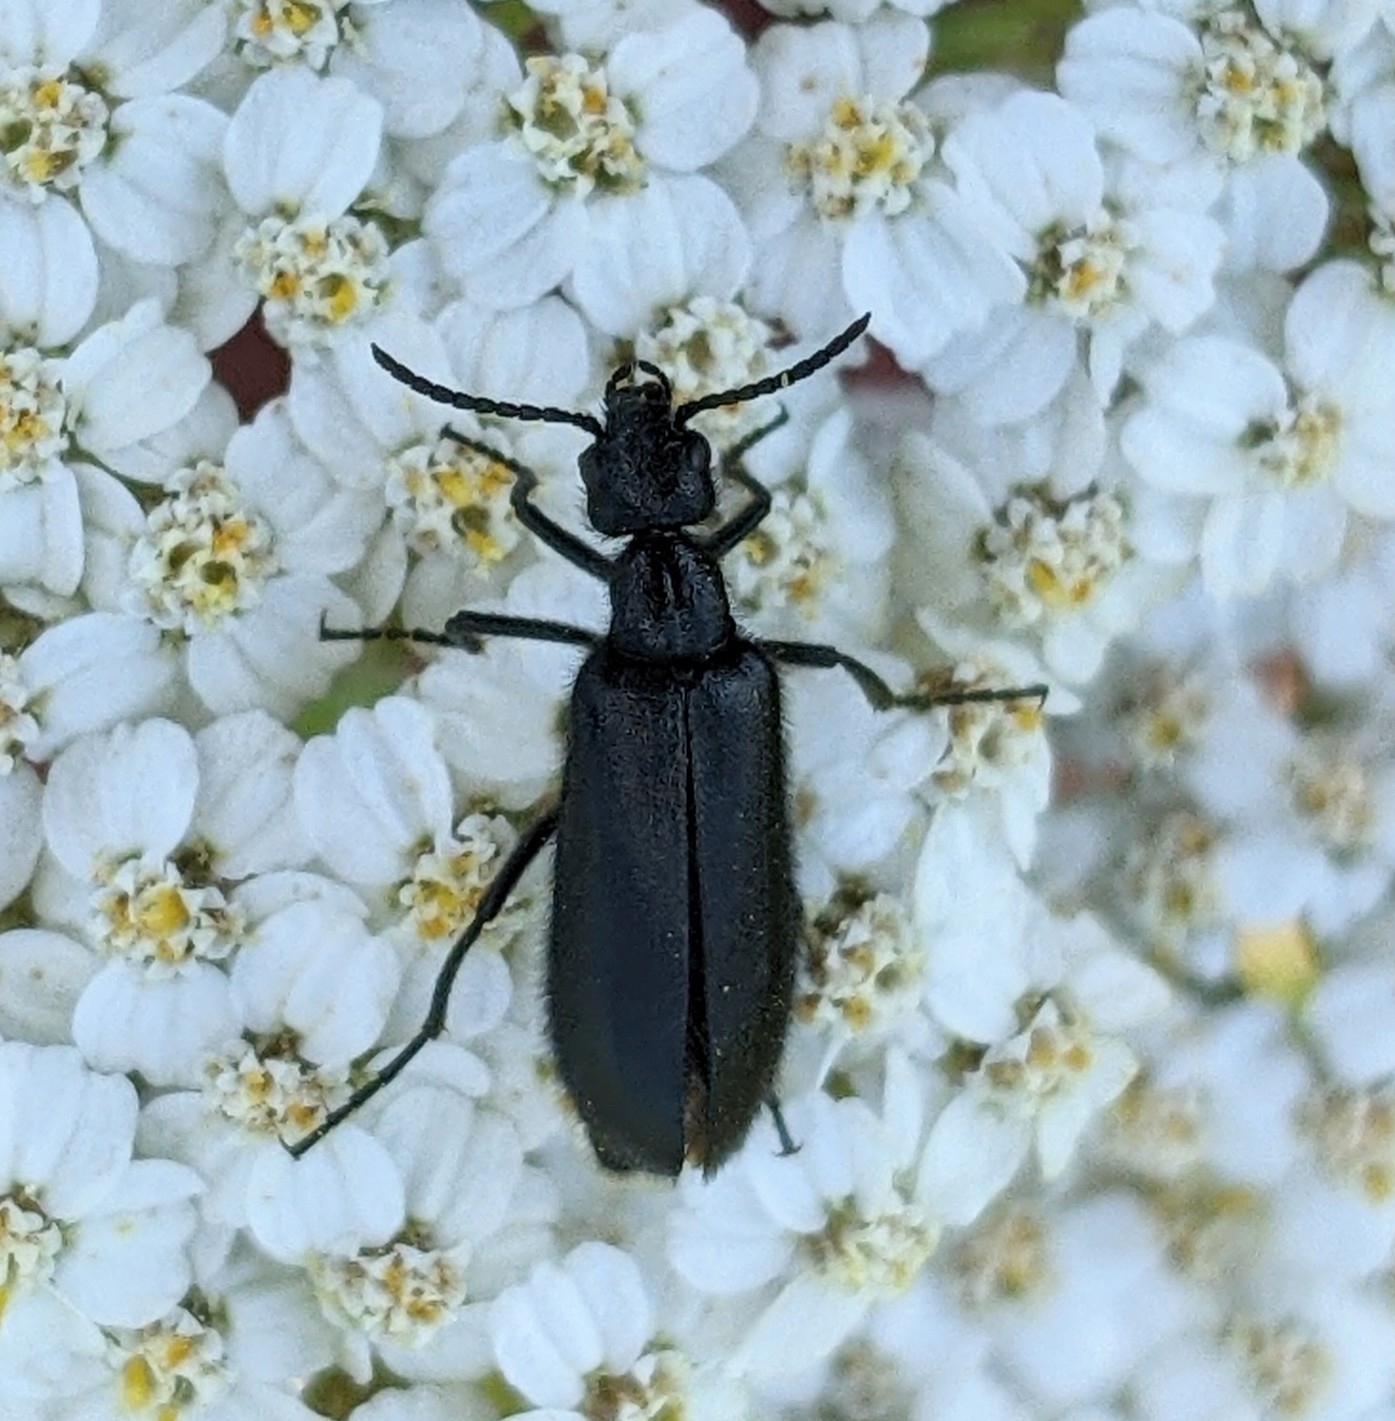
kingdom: Animalia
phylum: Arthropoda
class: Insecta
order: Coleoptera
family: Meloidae
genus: Epicauta
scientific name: Epicauta puncticollis
